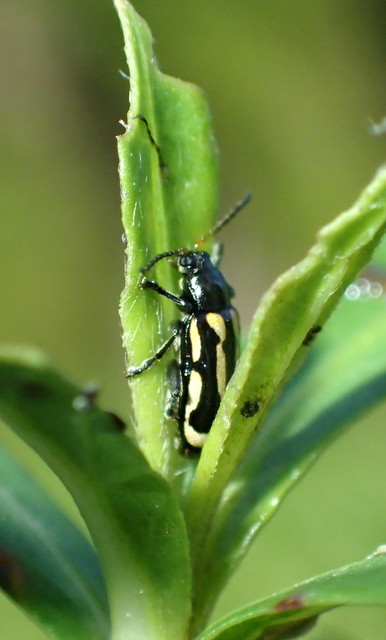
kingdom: Animalia
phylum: Arthropoda
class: Insecta
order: Coleoptera
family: Chrysomelidae
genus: Agasicles
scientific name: Agasicles hygrophila
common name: Alligatorweed flea beetle
